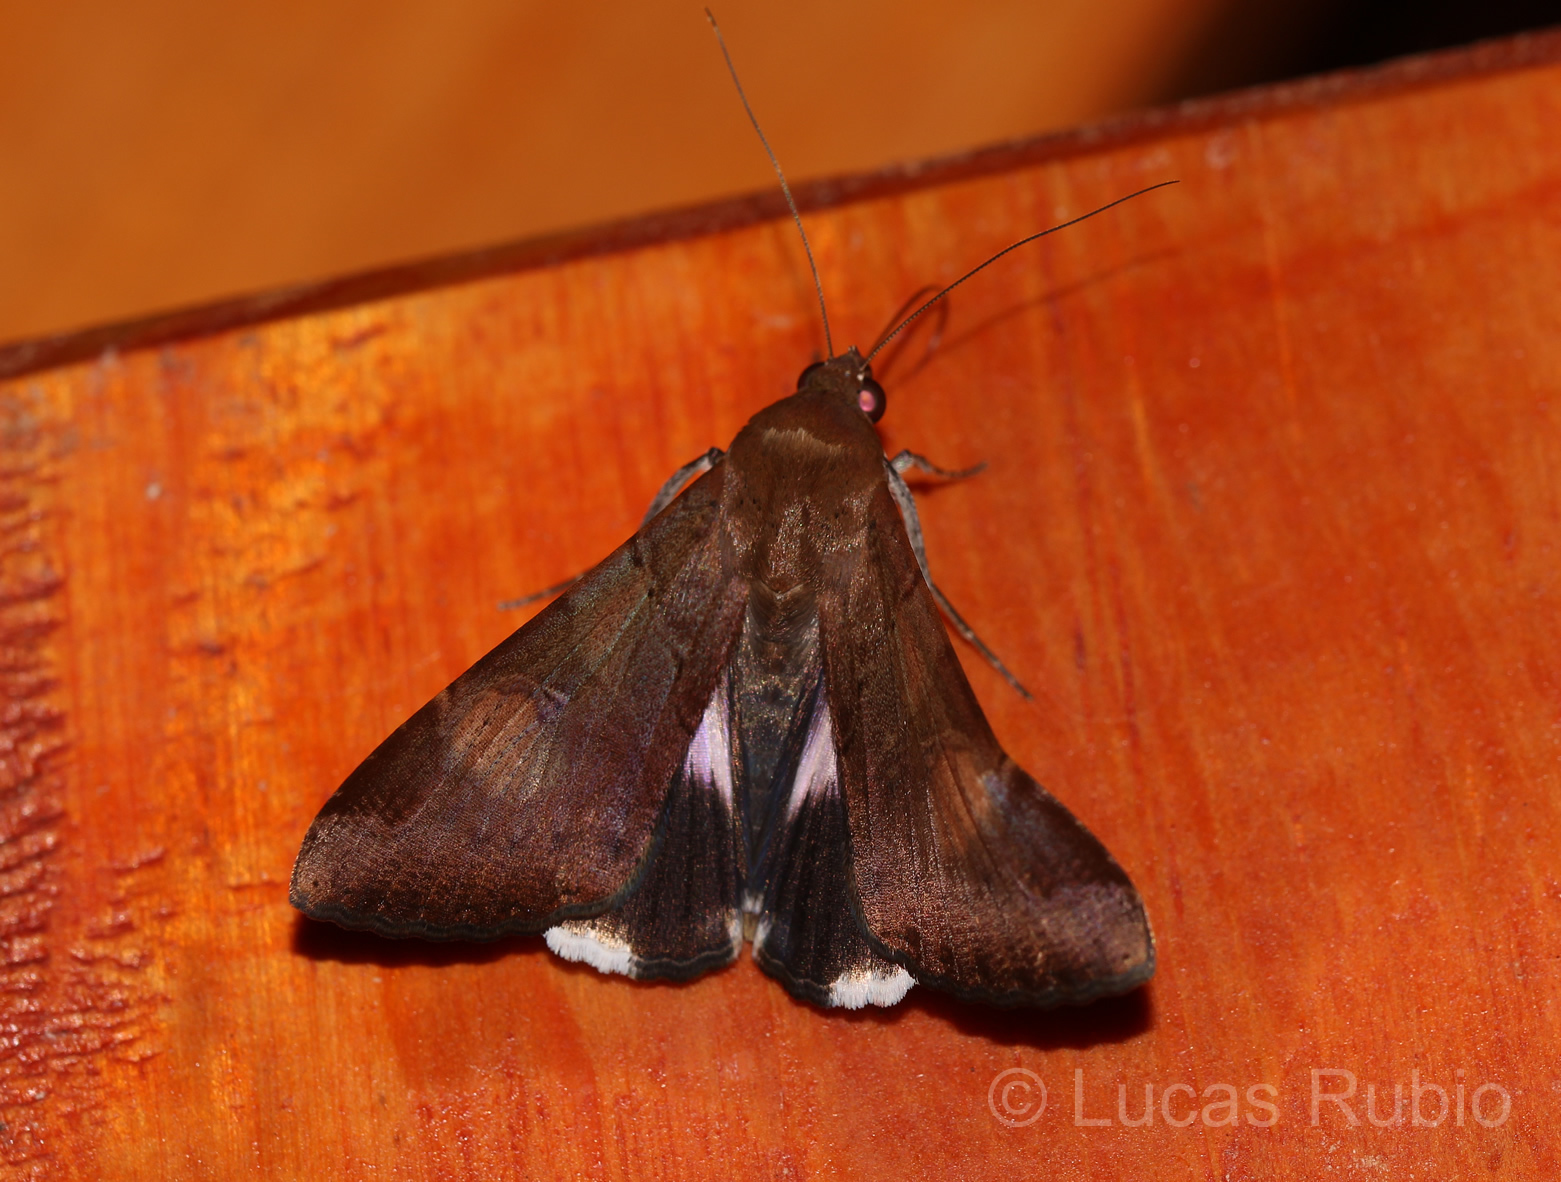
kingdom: Animalia
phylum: Arthropoda
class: Insecta
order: Lepidoptera
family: Erebidae
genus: Melipotis
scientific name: Melipotis fasciolaris
